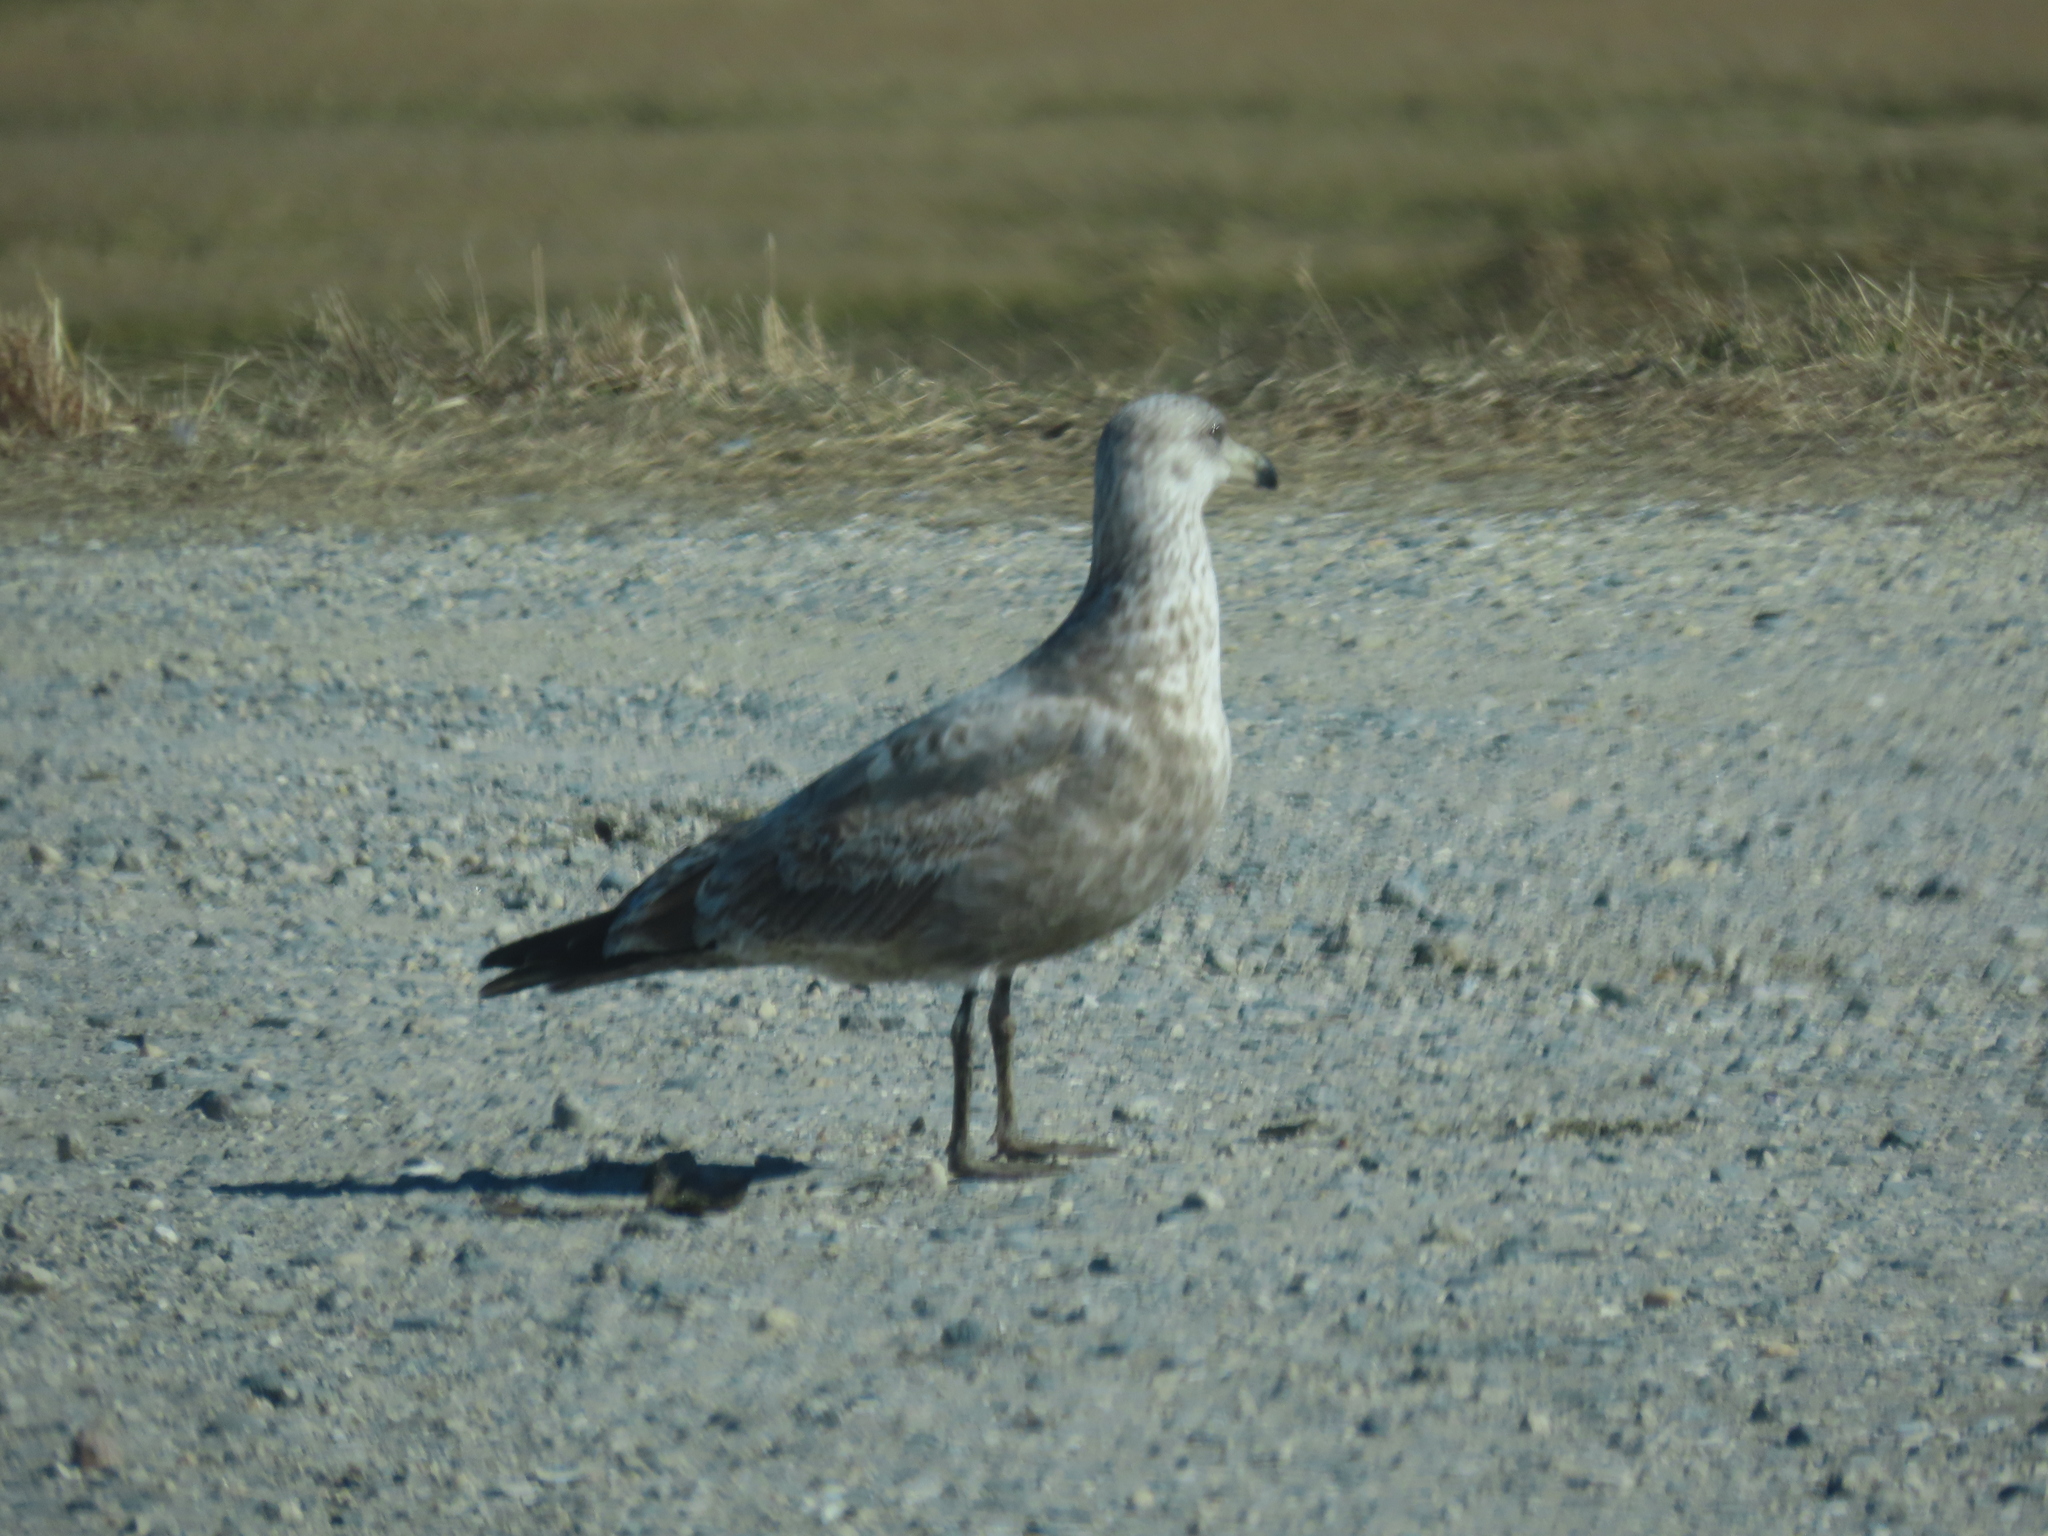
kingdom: Animalia
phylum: Chordata
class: Aves
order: Charadriiformes
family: Laridae
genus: Larus
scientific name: Larus smithsonianus
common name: American herring gull
